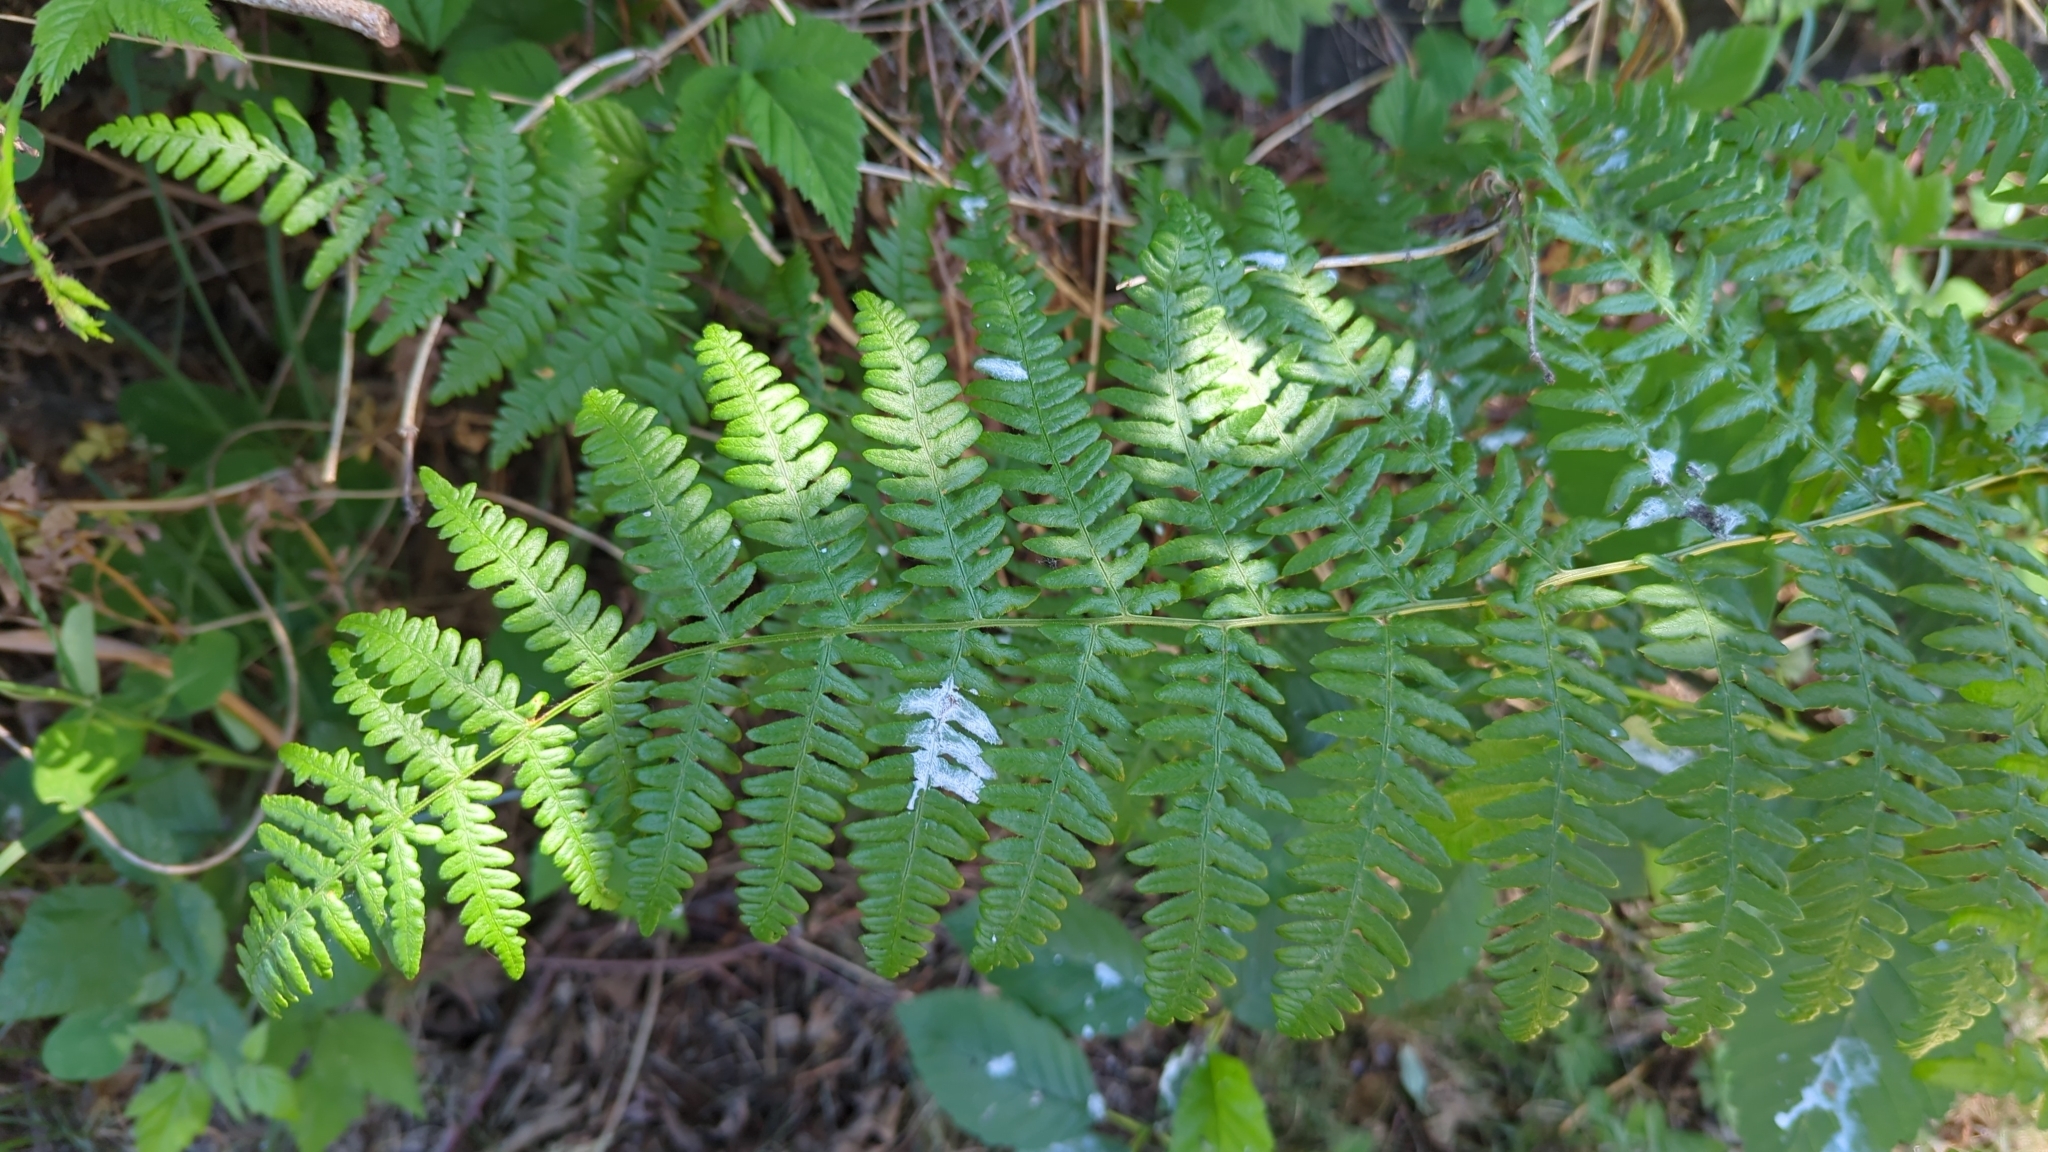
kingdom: Plantae
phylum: Tracheophyta
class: Polypodiopsida
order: Polypodiales
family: Dennstaedtiaceae
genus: Pteridium
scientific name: Pteridium aquilinum
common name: Bracken
